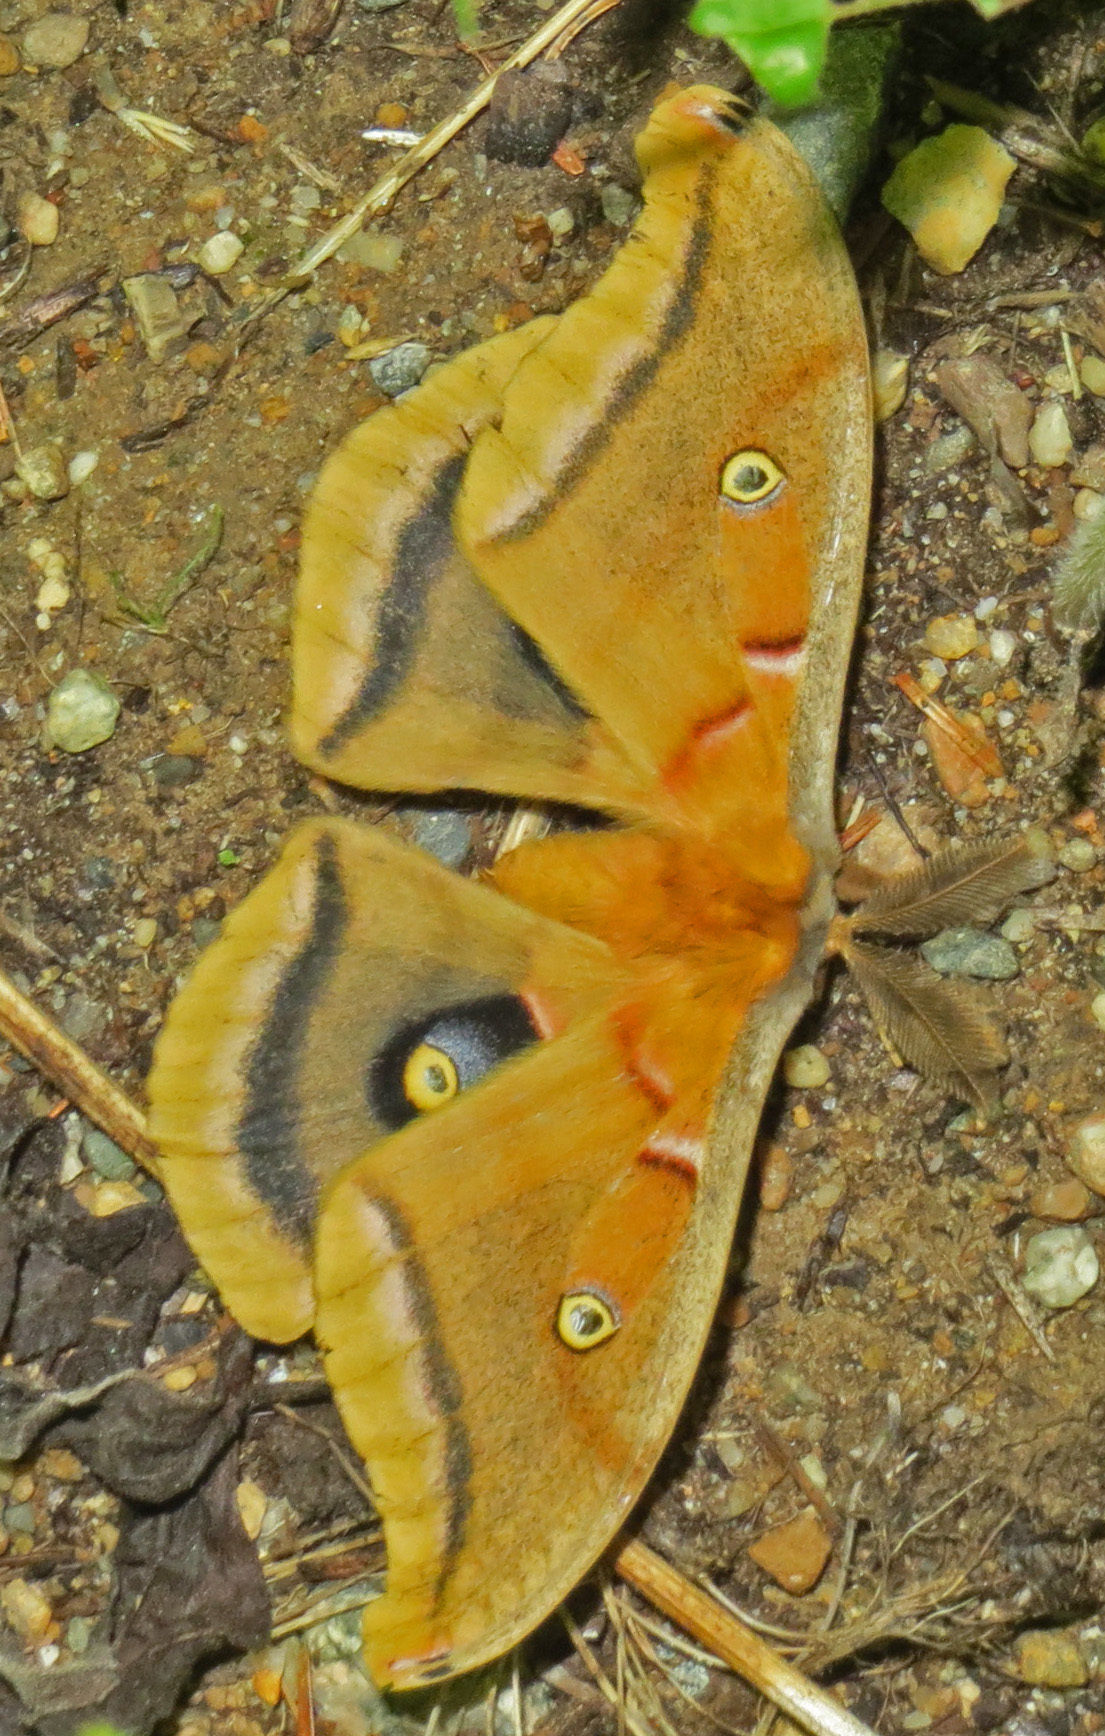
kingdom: Animalia
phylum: Arthropoda
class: Insecta
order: Lepidoptera
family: Saturniidae
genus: Antheraea
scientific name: Antheraea polyphemus
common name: Polyphemus moth
